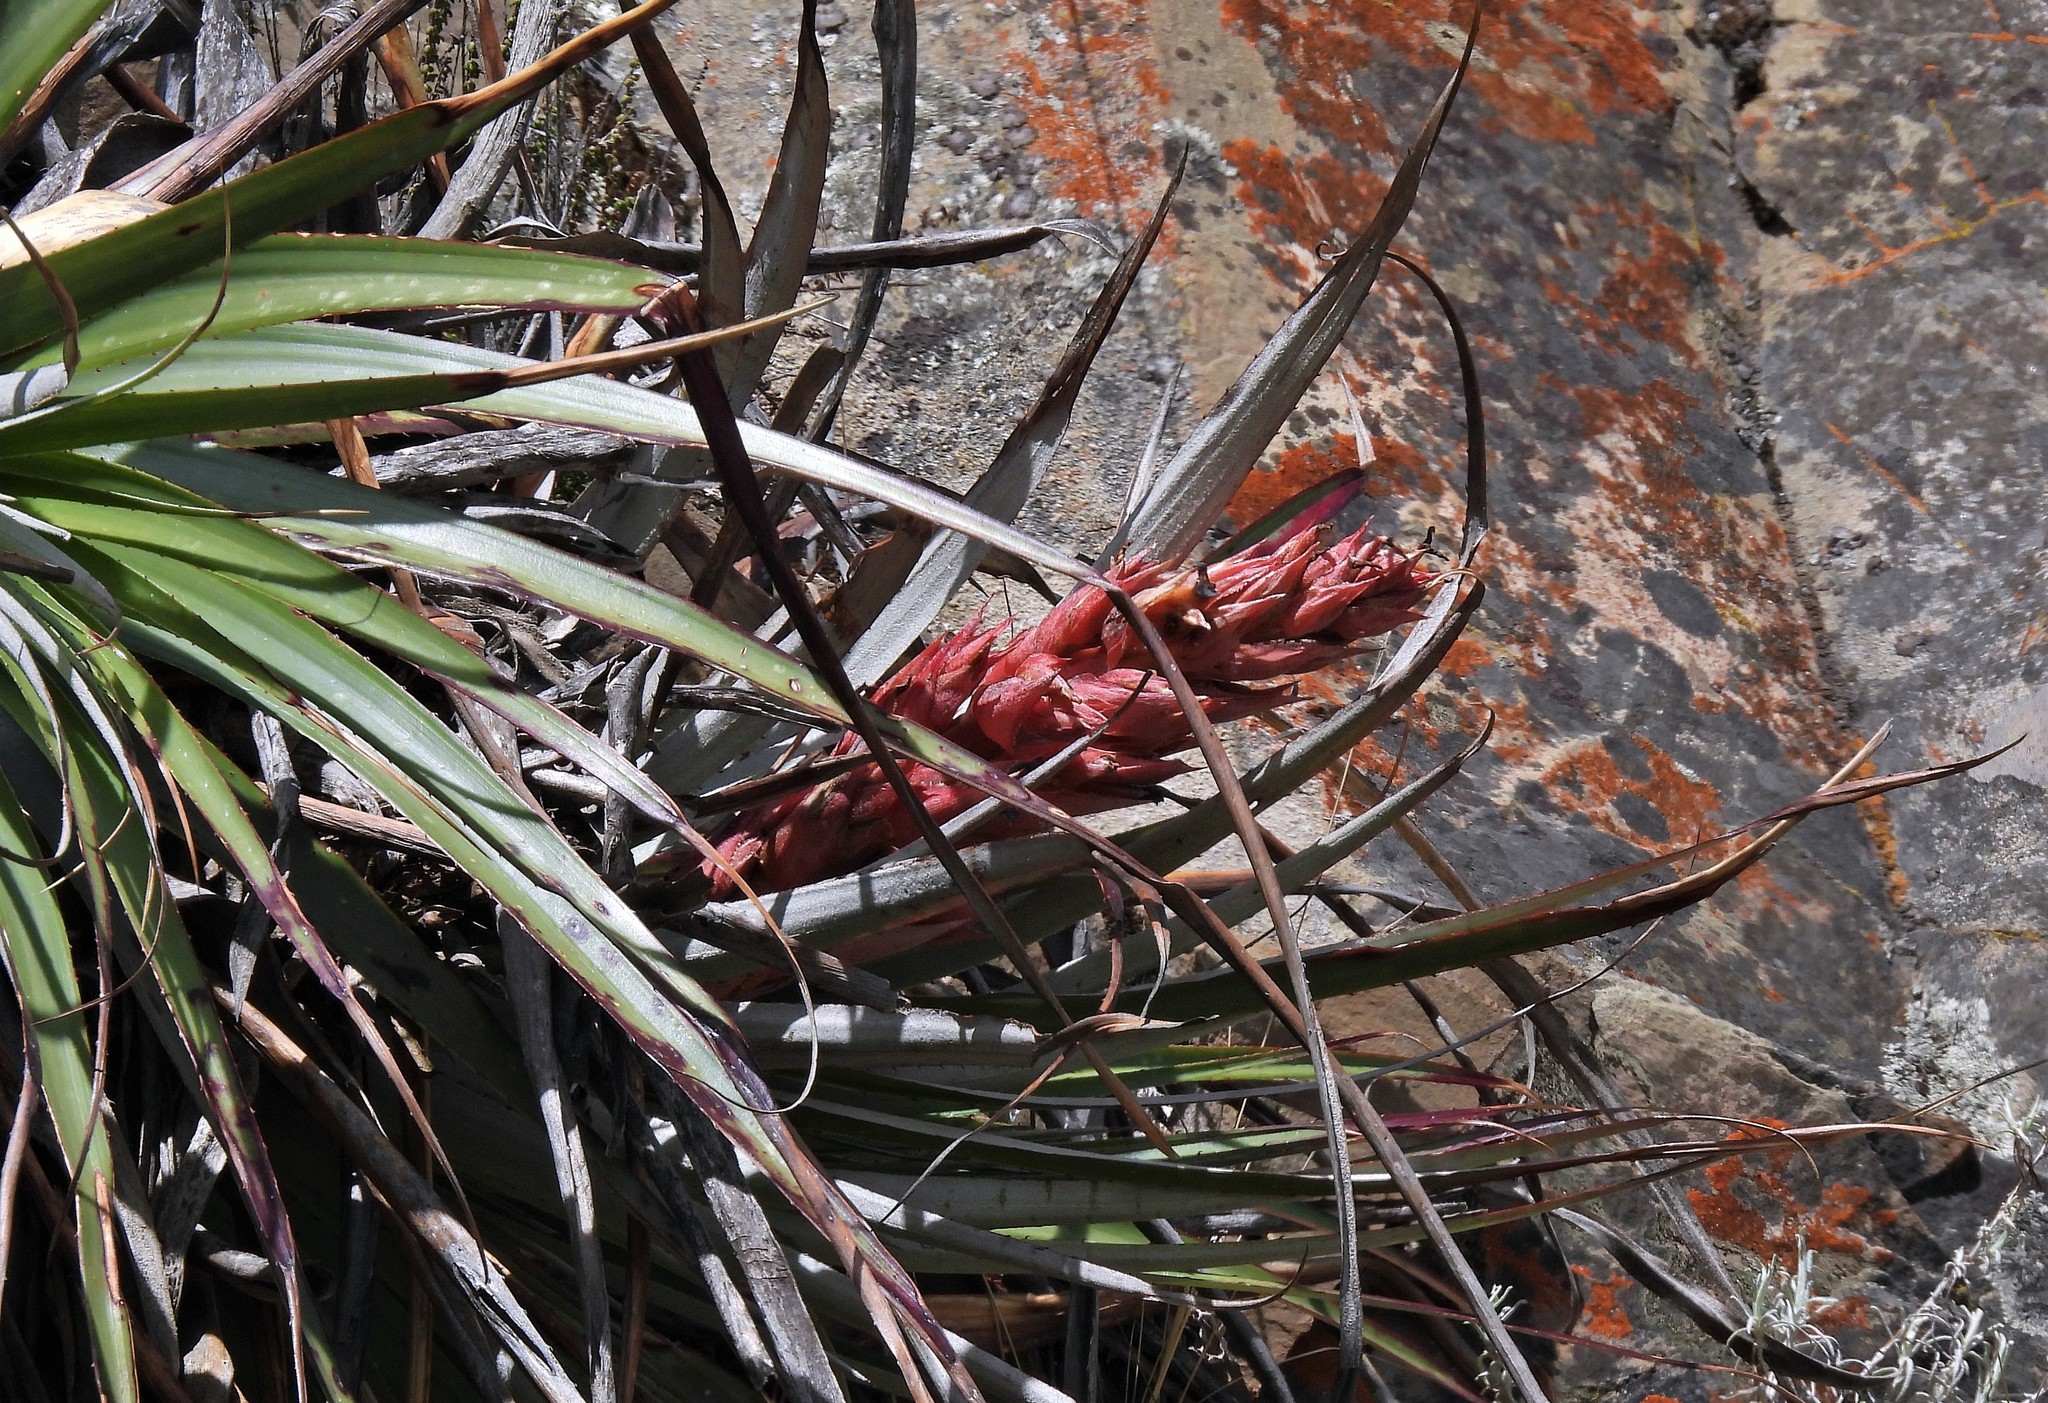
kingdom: Plantae
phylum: Tracheophyta
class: Liliopsida
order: Poales
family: Bromeliaceae
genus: Puya
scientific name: Puya dyckioides
